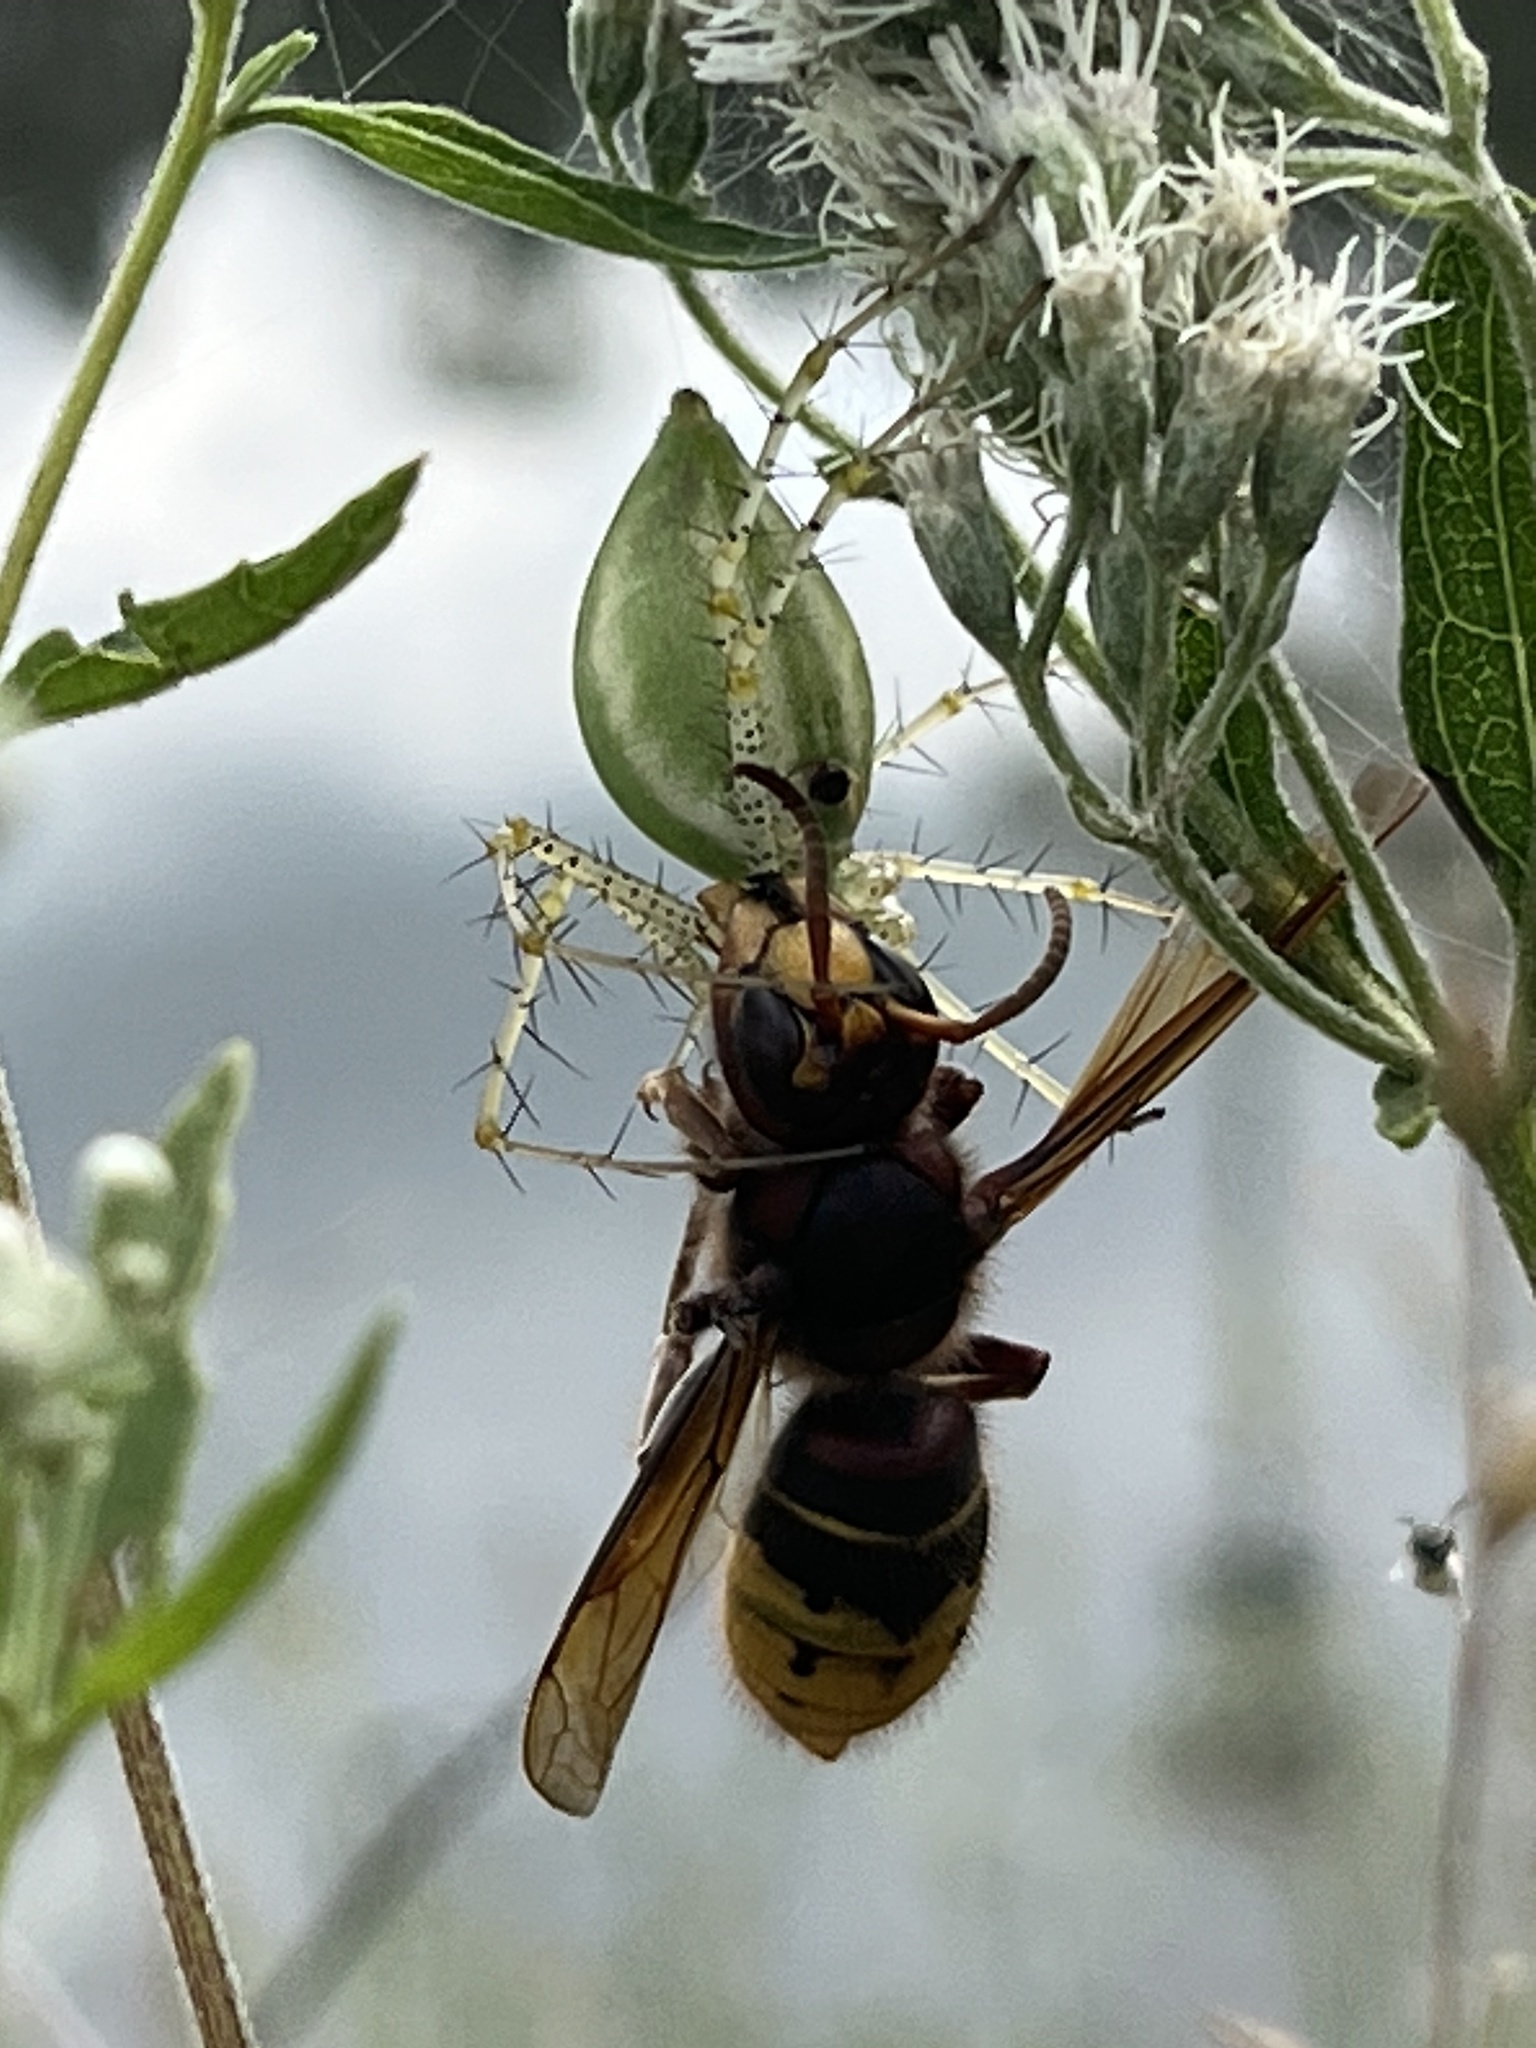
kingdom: Animalia
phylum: Arthropoda
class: Arachnida
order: Araneae
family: Oxyopidae
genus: Peucetia
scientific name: Peucetia viridans
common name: Lynx spiders
